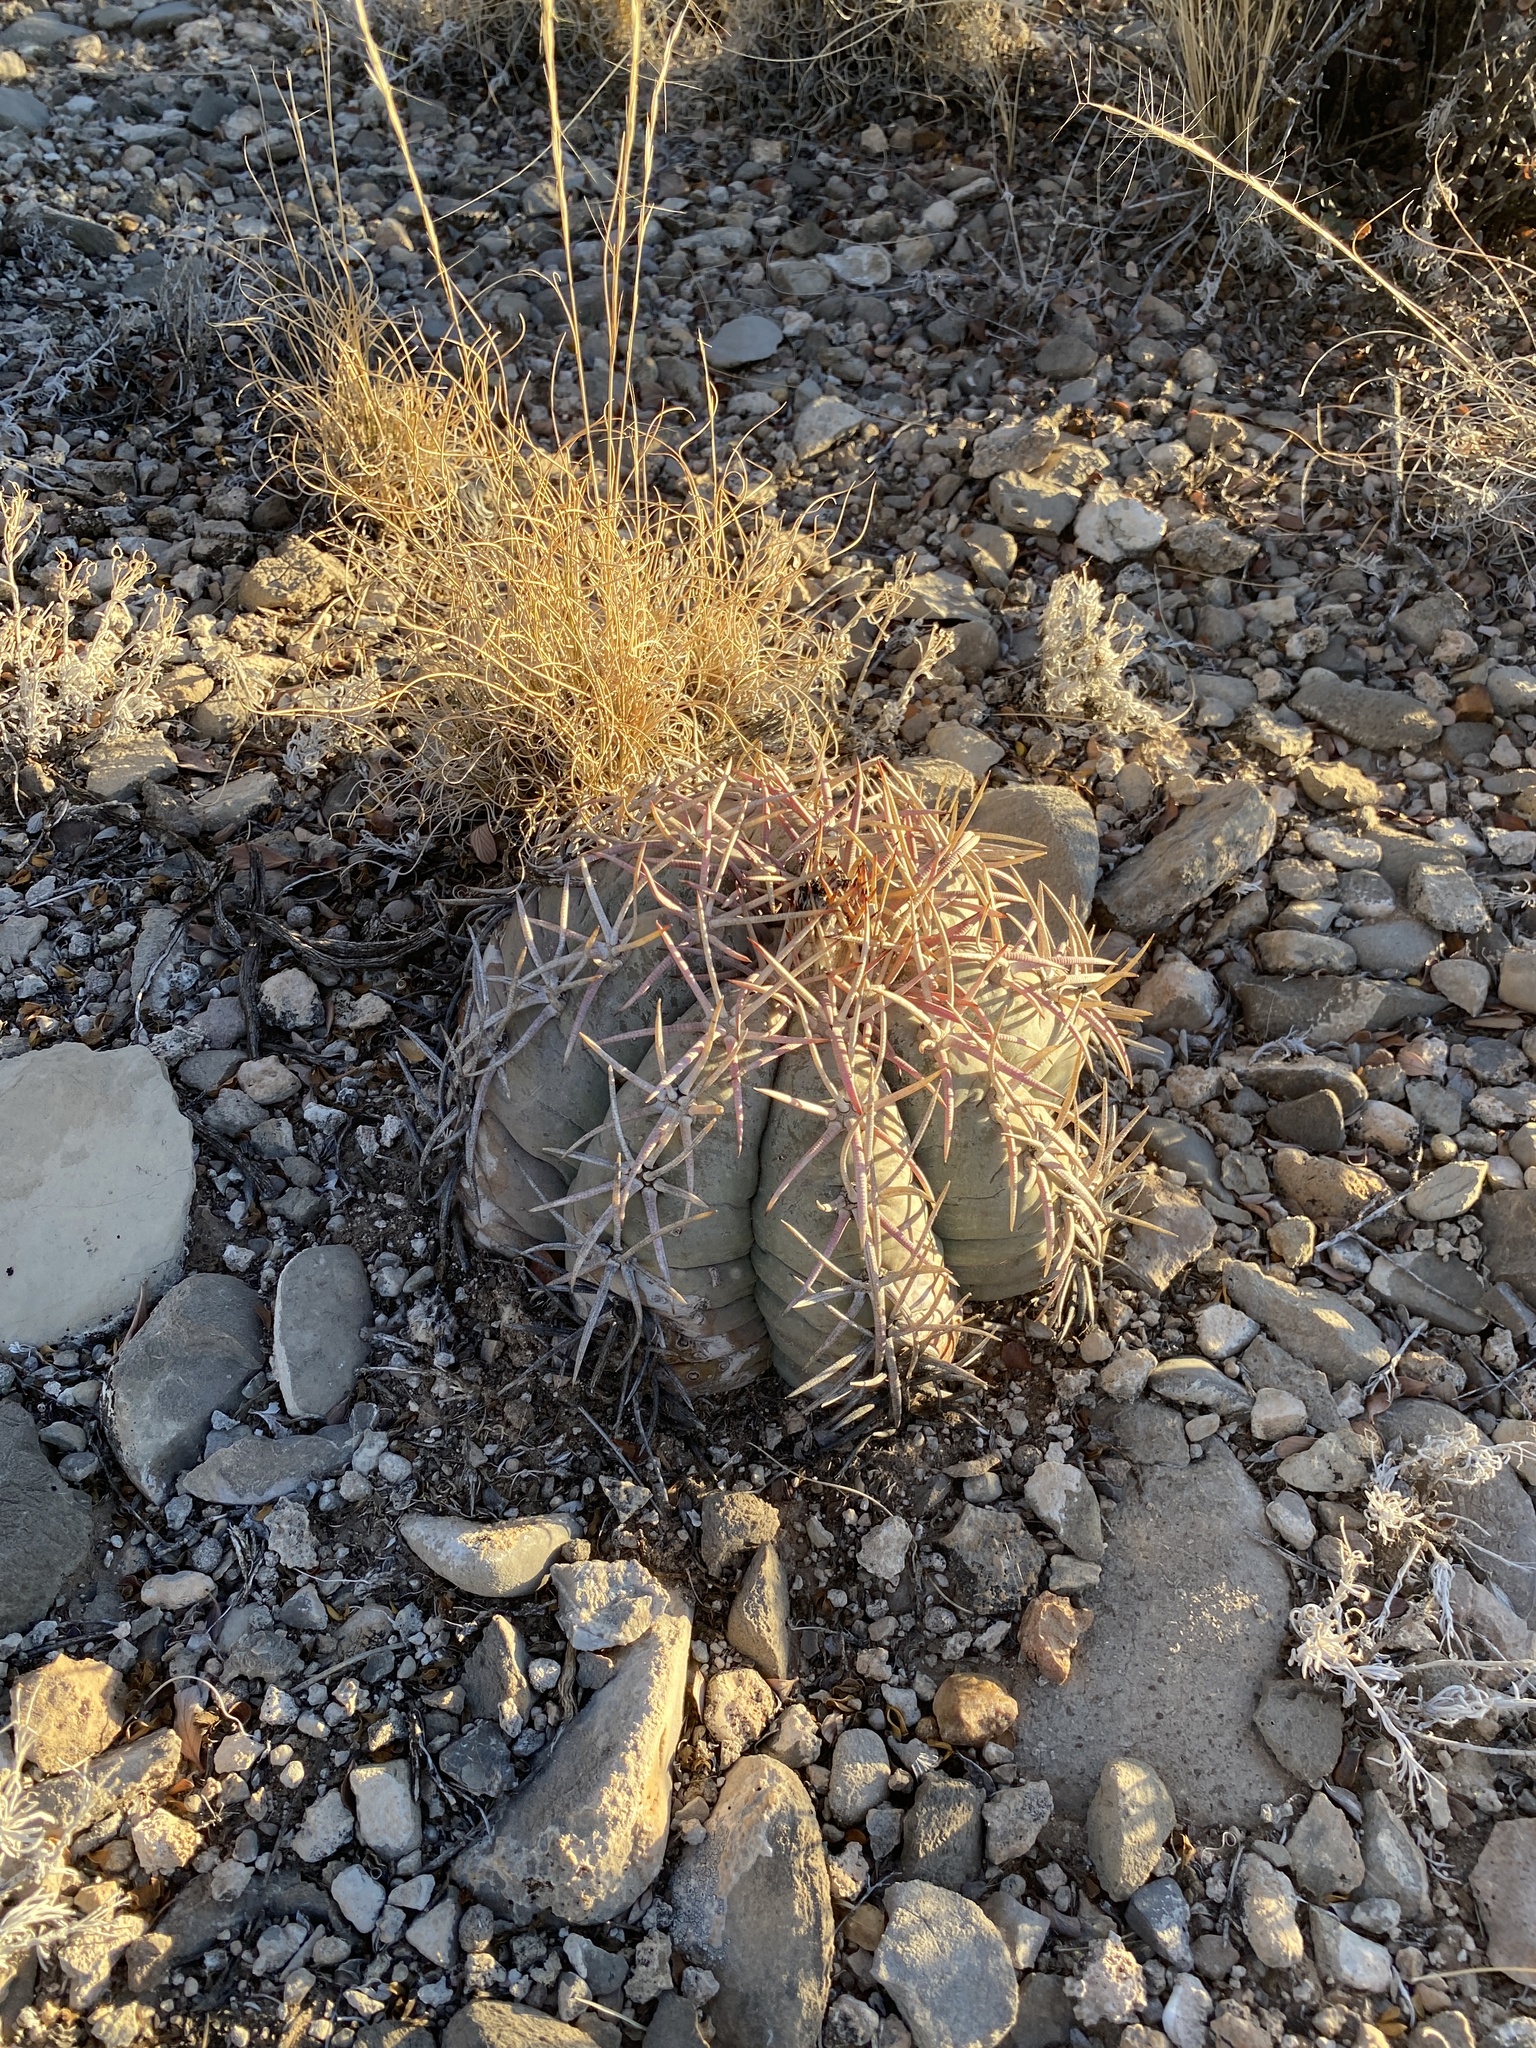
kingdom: Plantae
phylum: Tracheophyta
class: Magnoliopsida
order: Caryophyllales
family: Cactaceae
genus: Echinocactus
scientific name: Echinocactus horizonthalonius
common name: Devilshead
